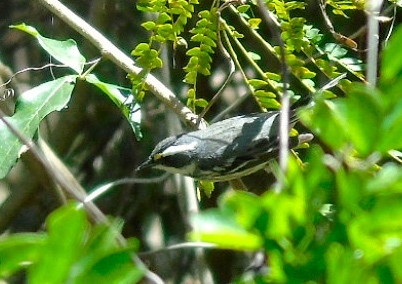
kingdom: Animalia
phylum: Chordata
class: Aves
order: Passeriformes
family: Parulidae
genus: Setophaga
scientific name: Setophaga nigrescens
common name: Black-throated gray warbler
